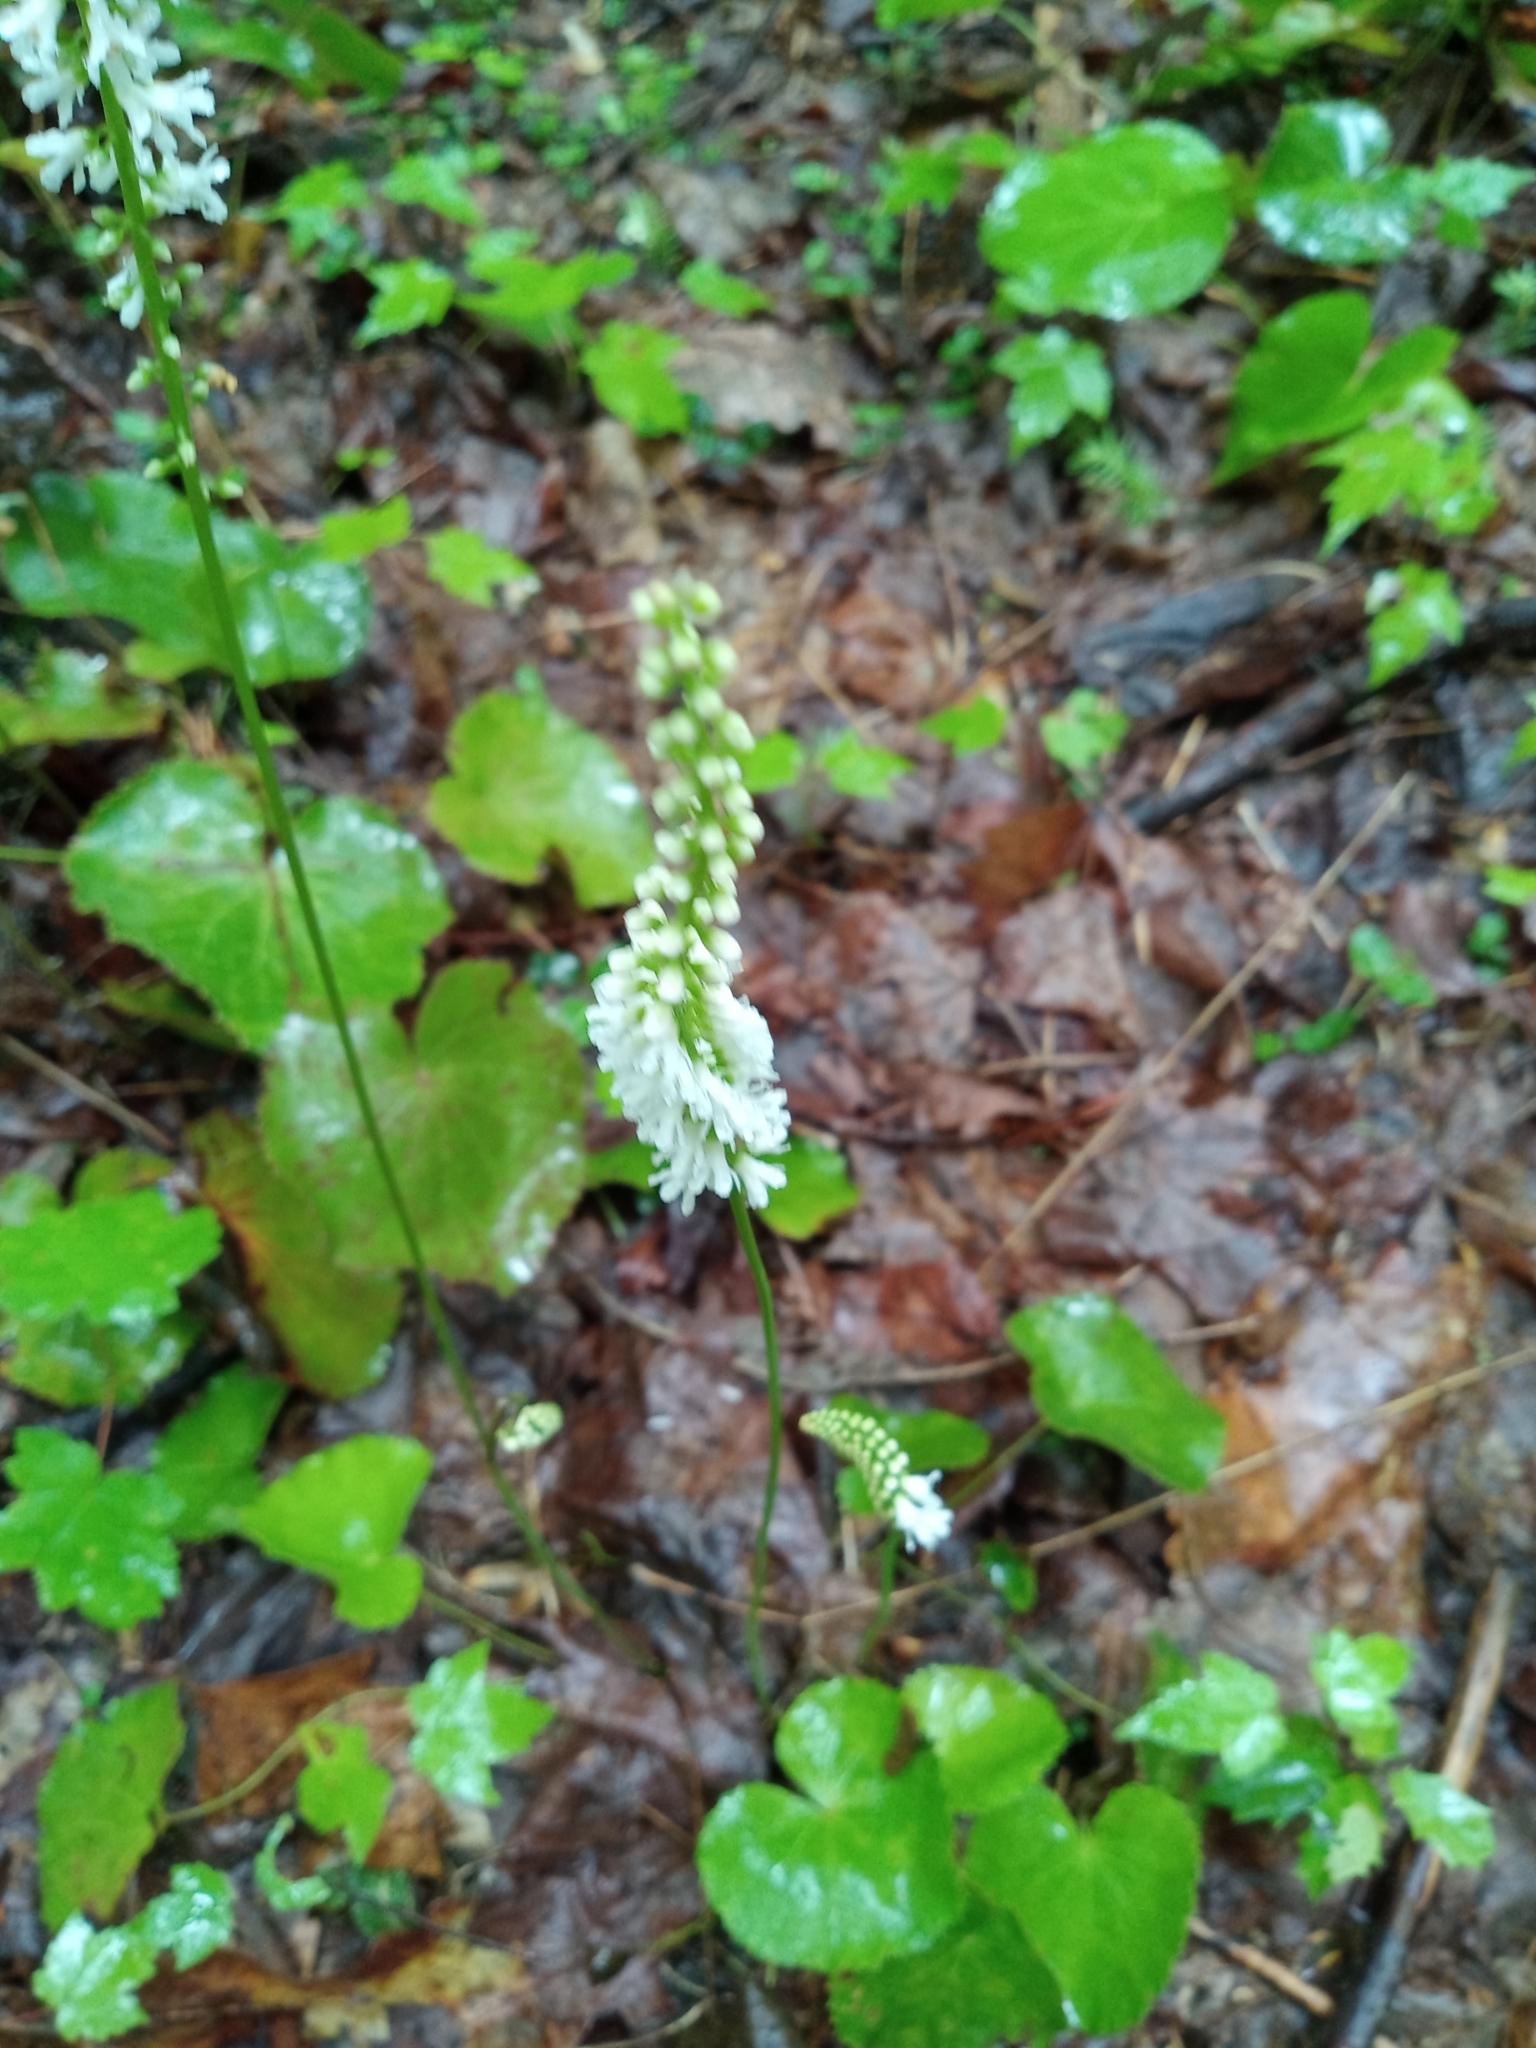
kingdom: Plantae
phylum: Tracheophyta
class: Magnoliopsida
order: Ericales
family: Diapensiaceae
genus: Galax
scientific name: Galax urceolata
